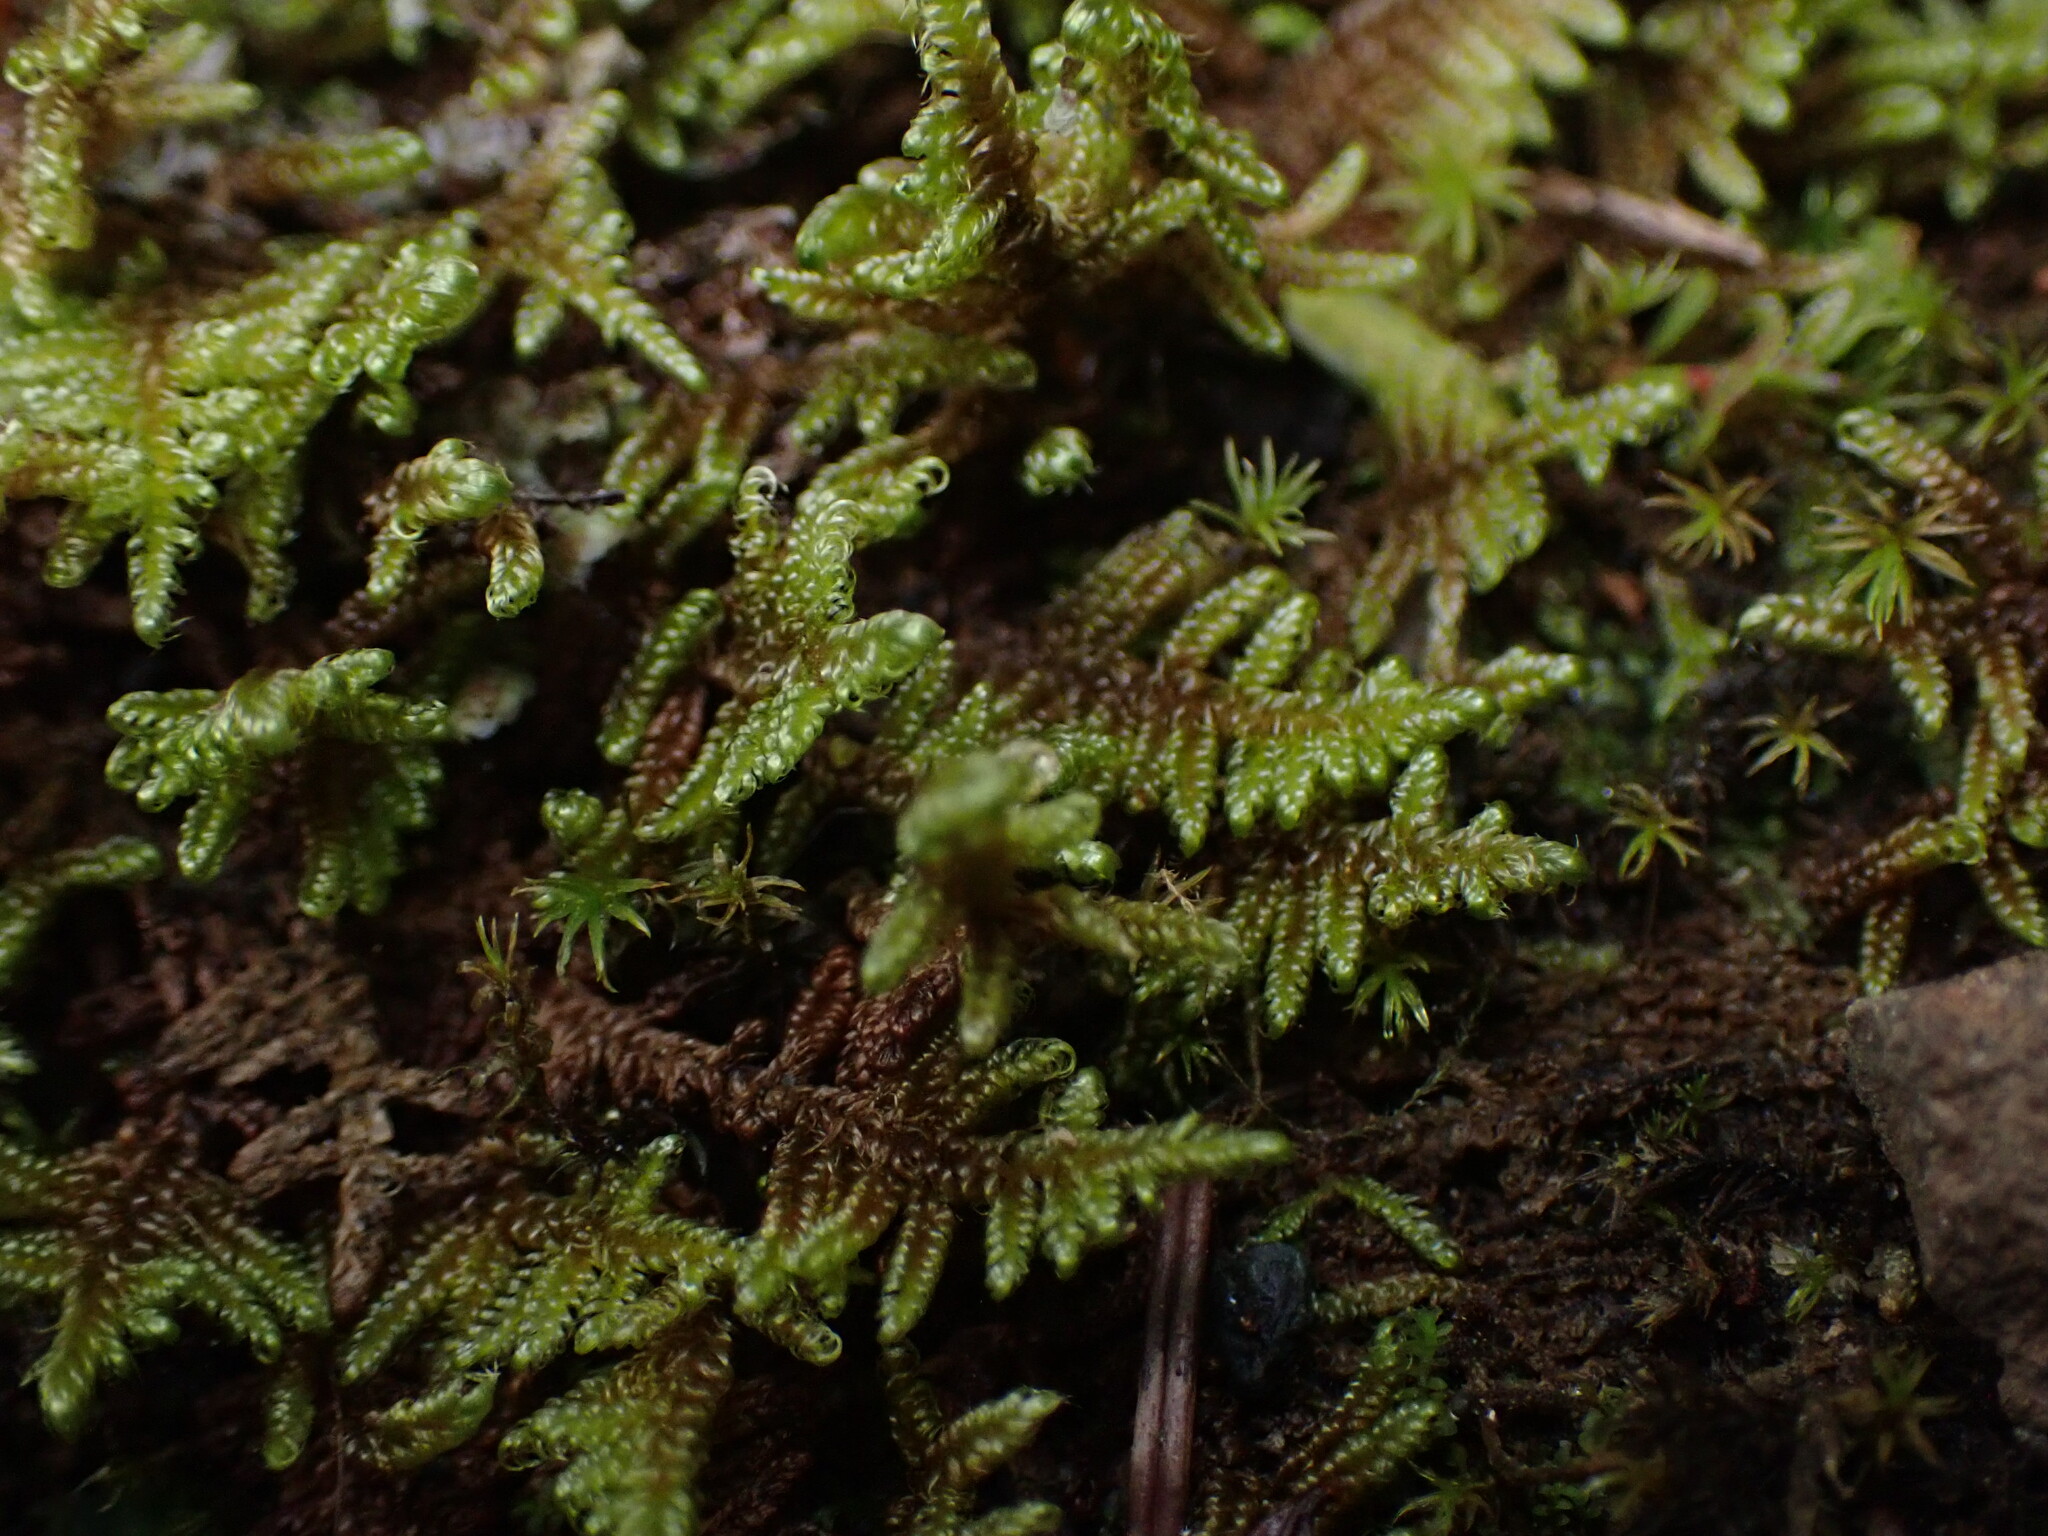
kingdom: Plantae
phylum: Bryophyta
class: Bryopsida
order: Hypnales
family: Pylaisiaceae
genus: Calliergonellopsis
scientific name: Calliergonellopsis dieckii
